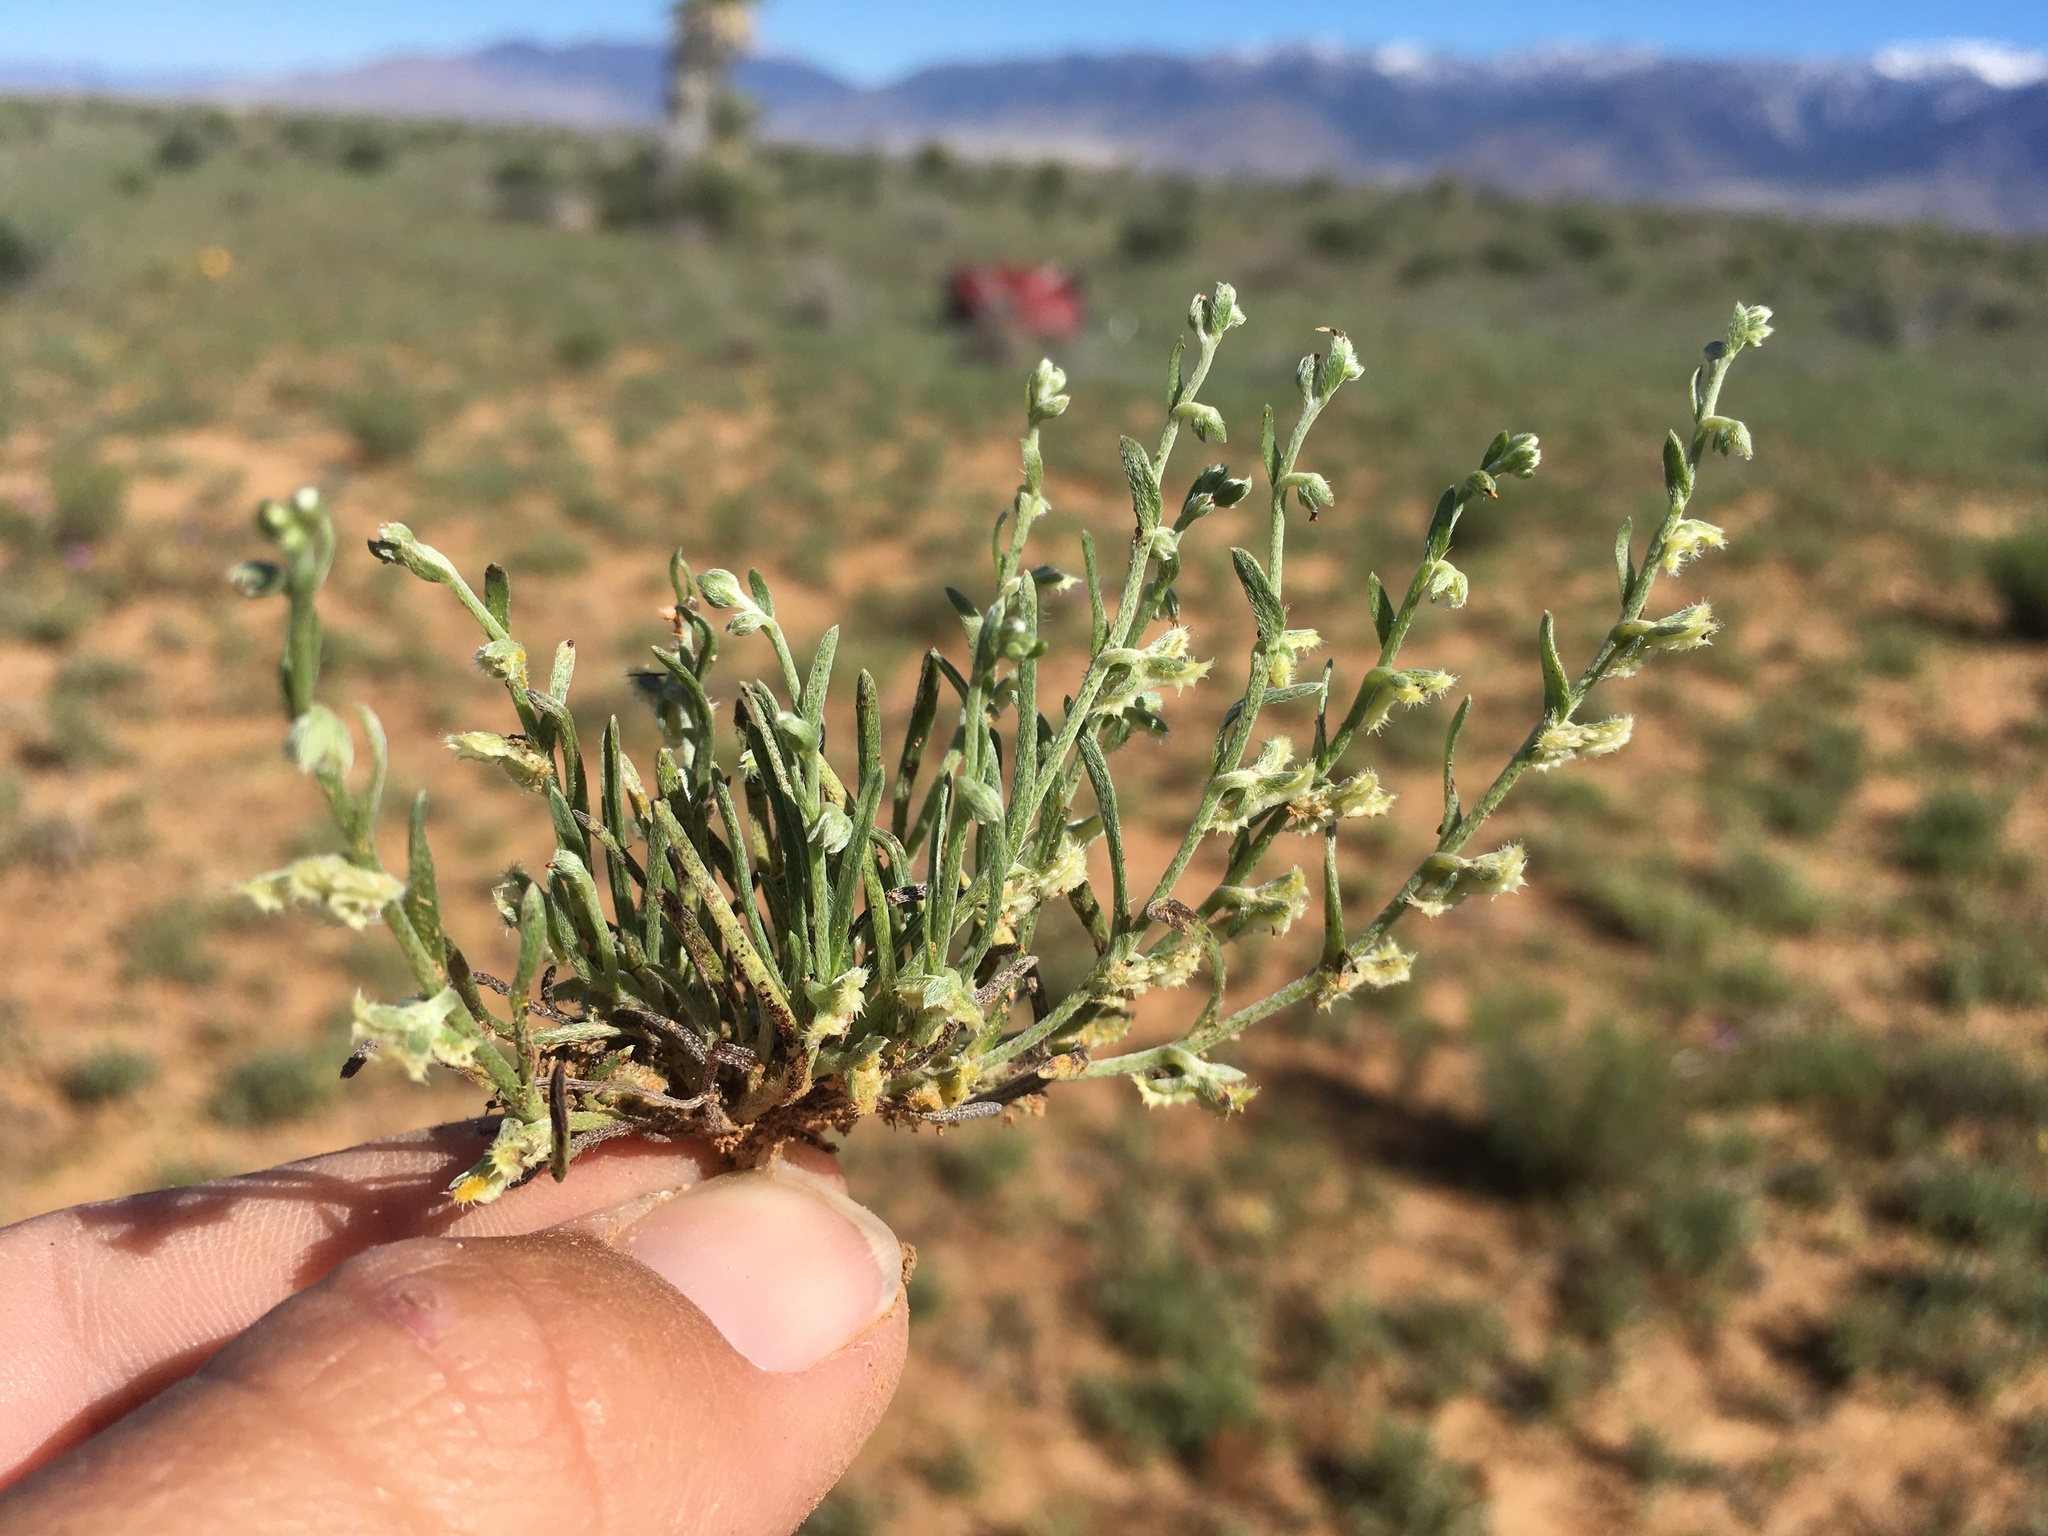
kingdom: Plantae
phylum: Tracheophyta
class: Magnoliopsida
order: Boraginales
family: Boraginaceae
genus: Pectocarya
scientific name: Pectocarya platycarpa
